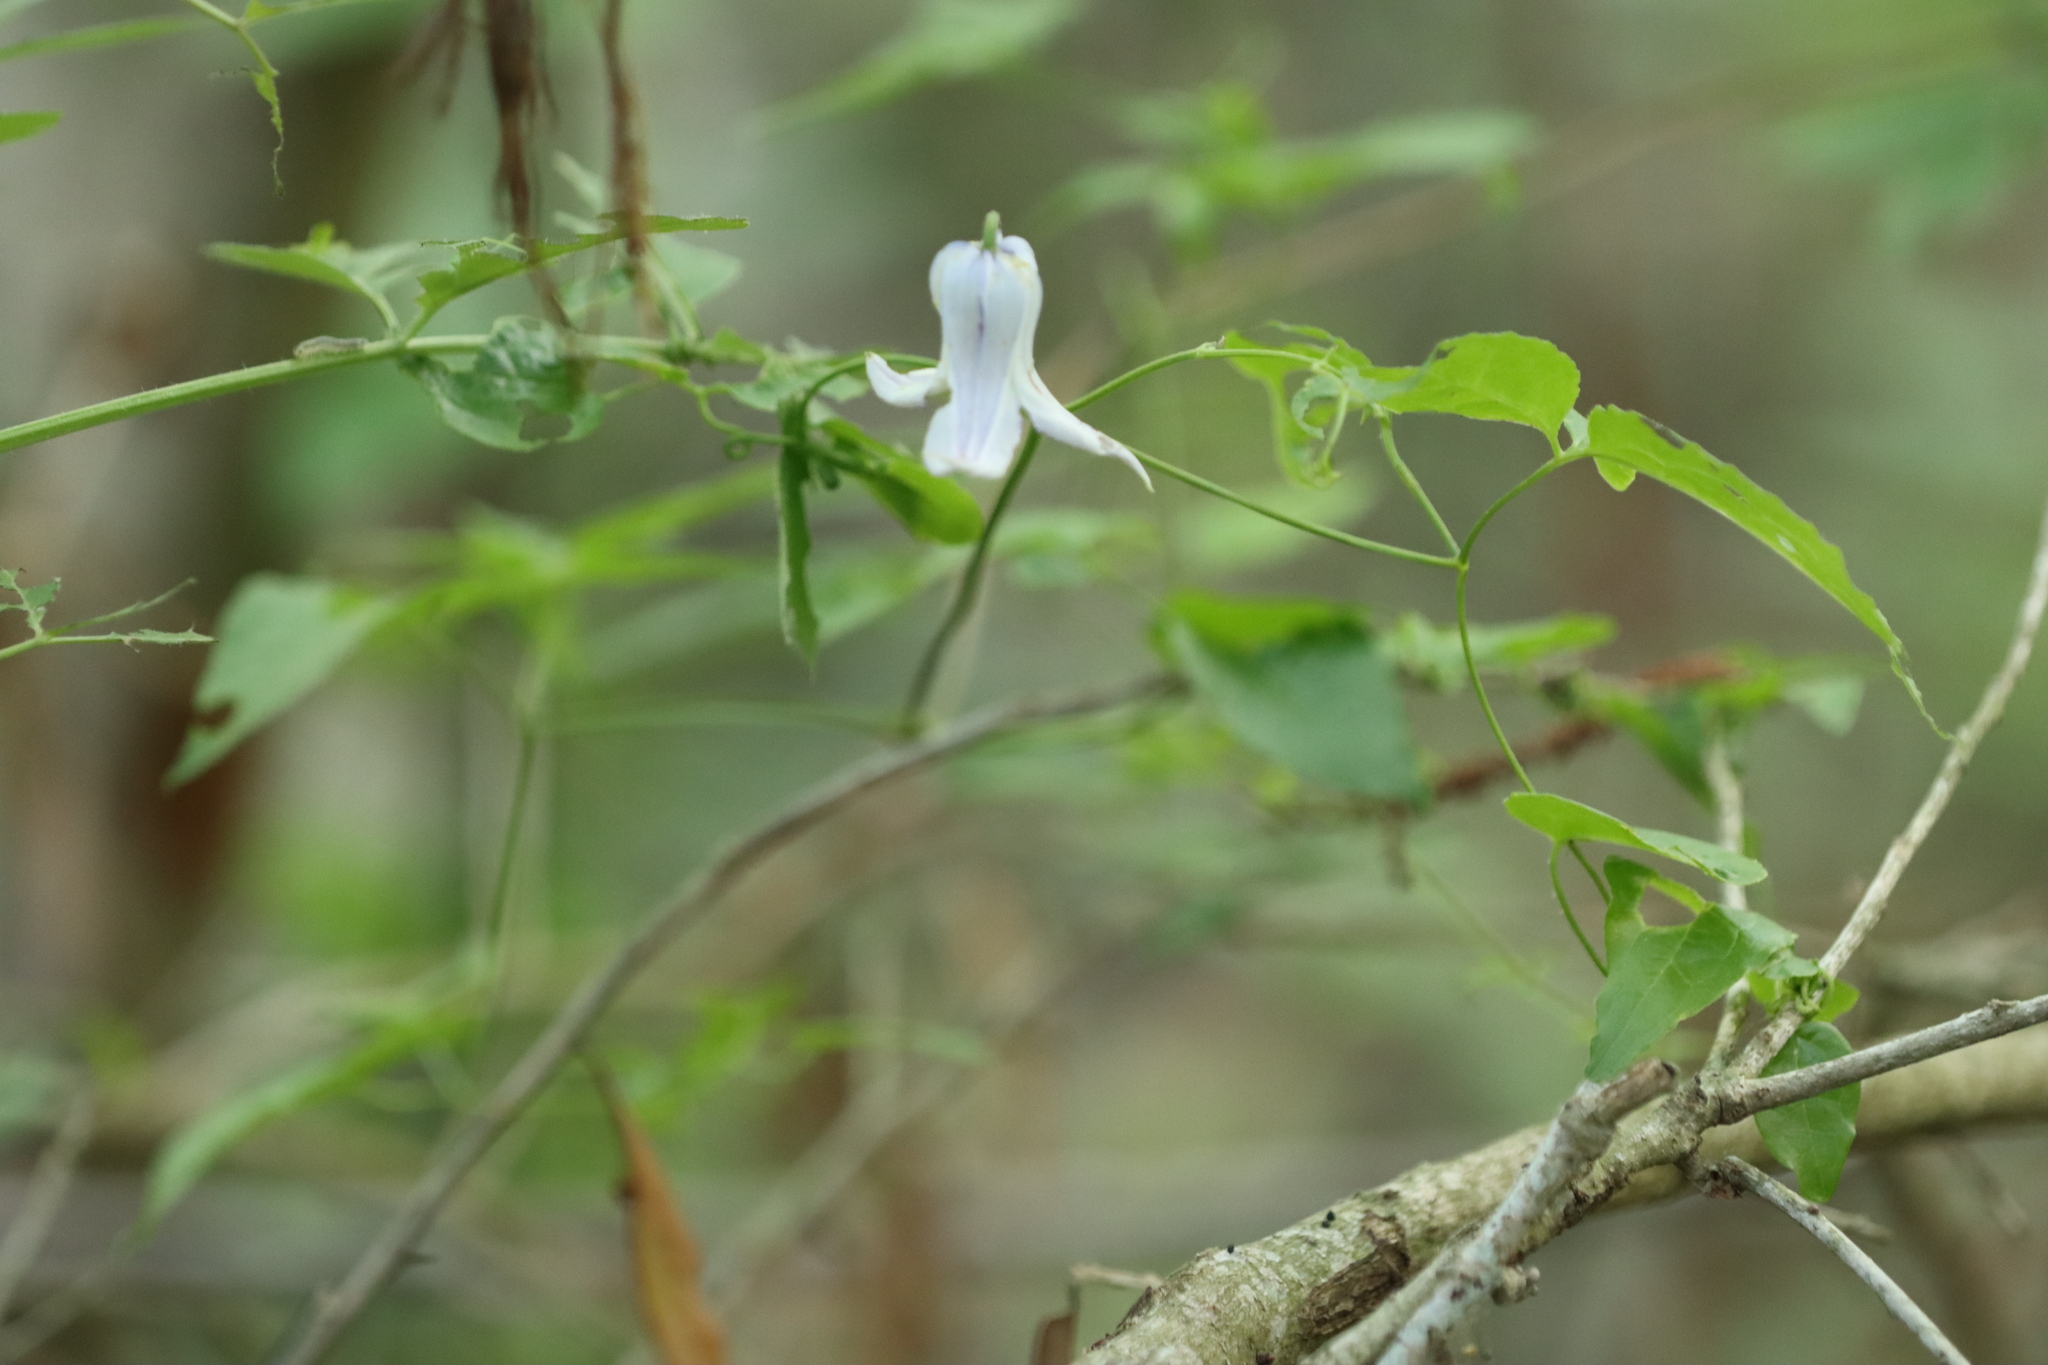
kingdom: Plantae
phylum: Tracheophyta
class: Magnoliopsida
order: Ranunculales
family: Ranunculaceae
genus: Clematis
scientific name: Clematis crispa
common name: Curly clematis
